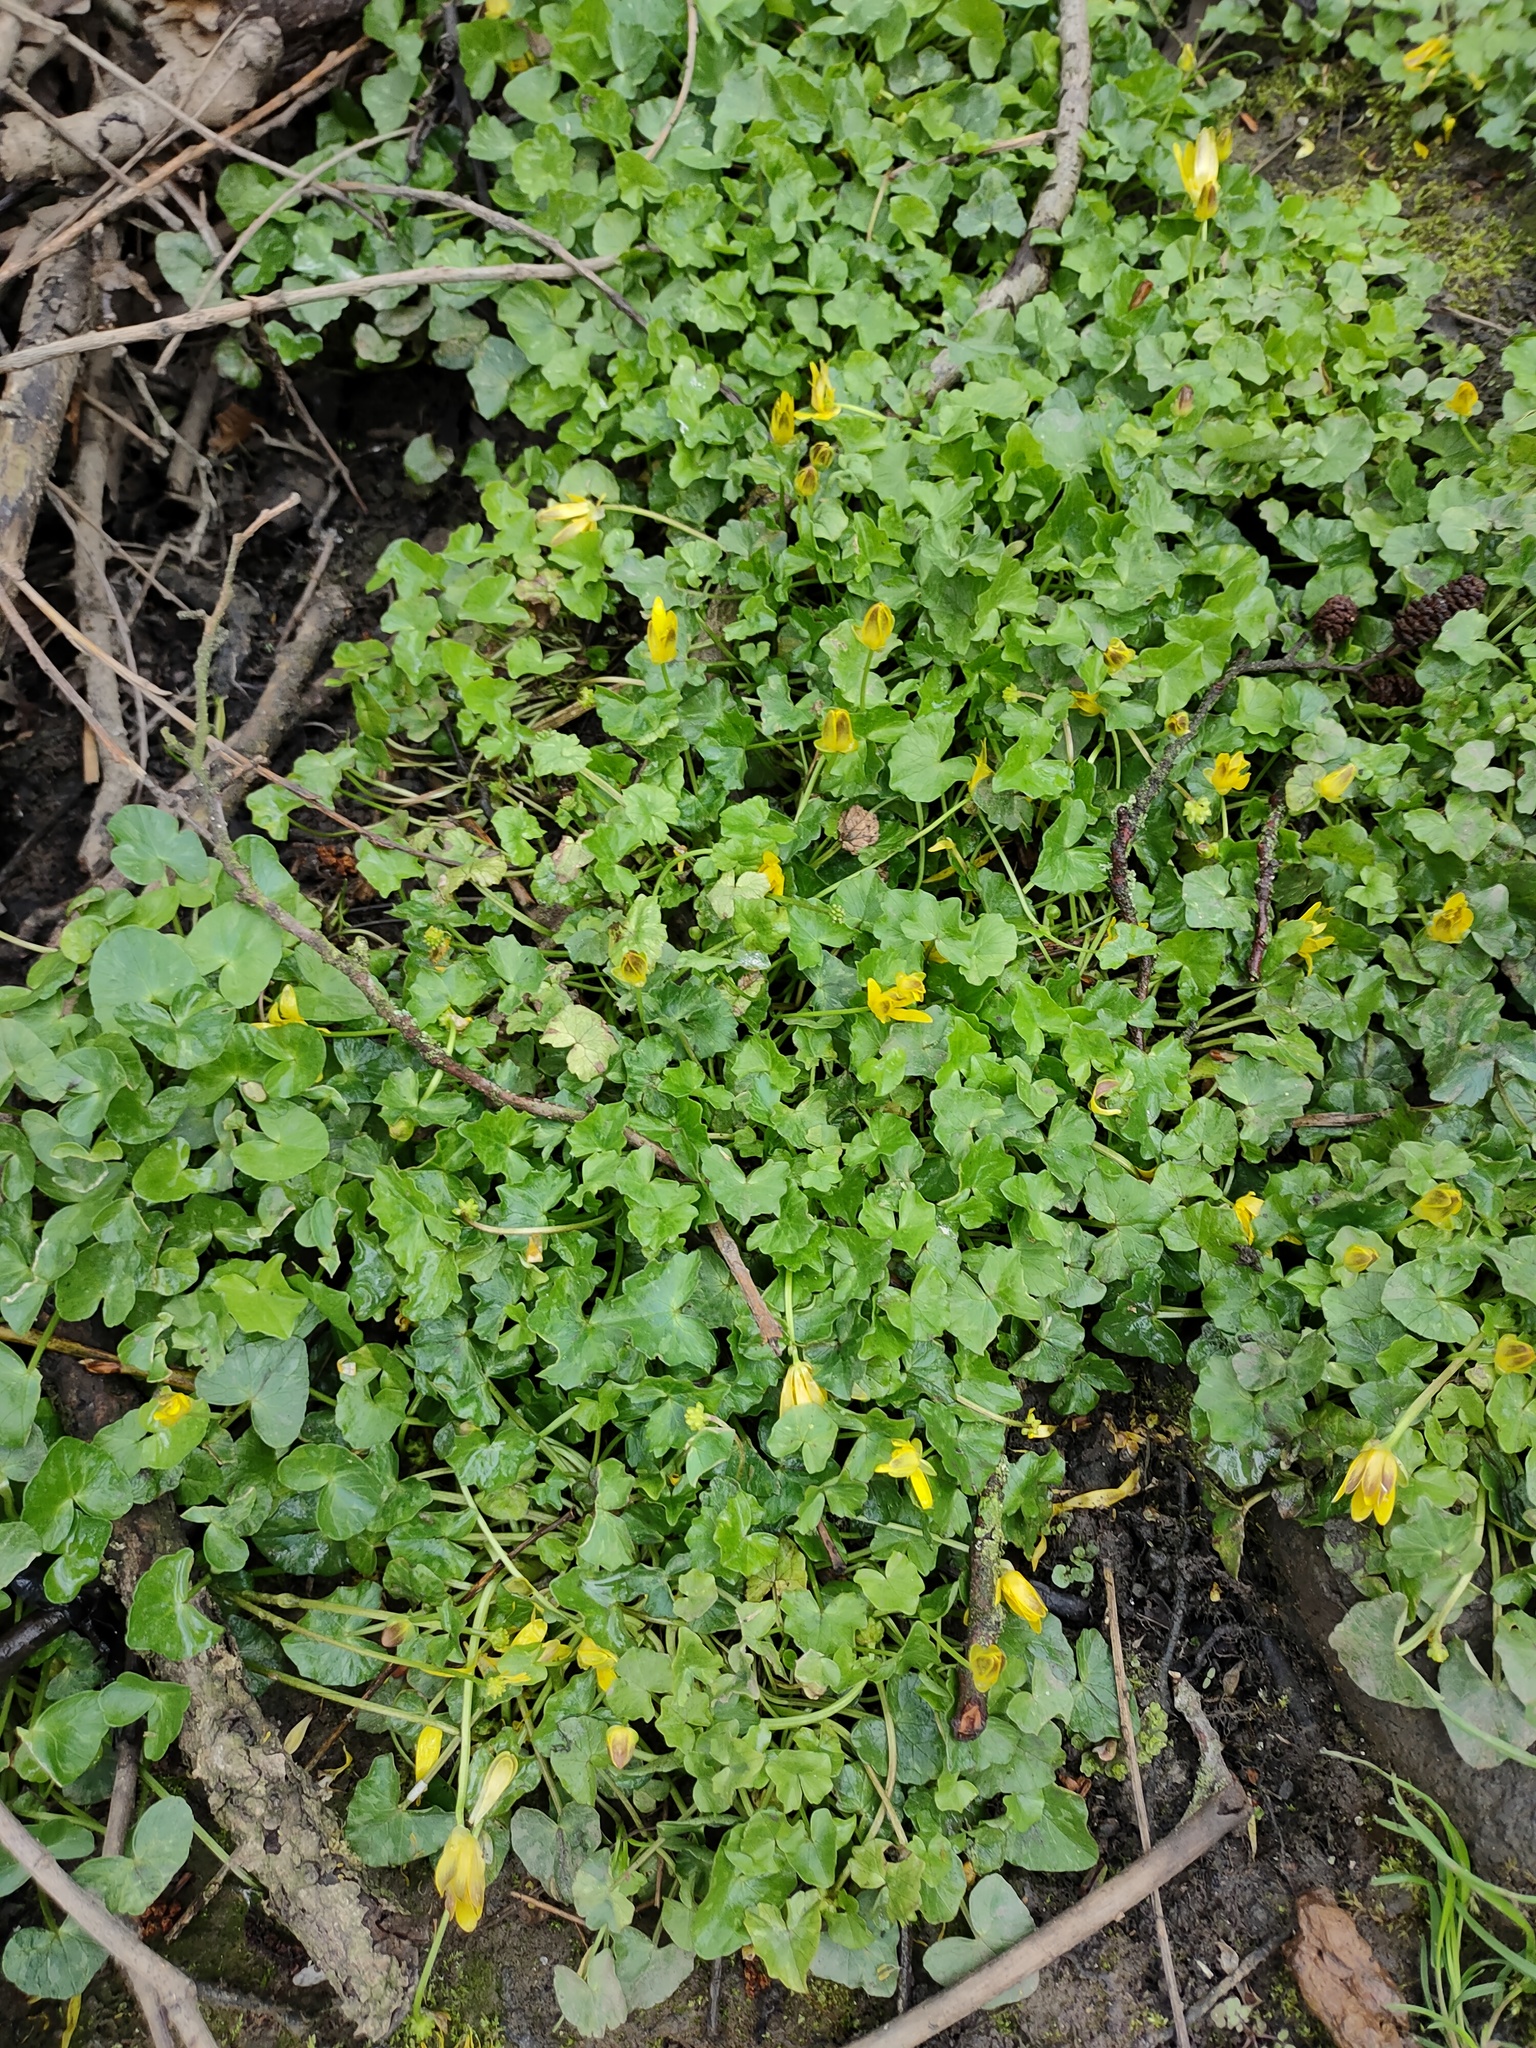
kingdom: Plantae
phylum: Tracheophyta
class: Magnoliopsida
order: Ranunculales
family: Ranunculaceae
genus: Ficaria
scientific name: Ficaria verna
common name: Lesser celandine
